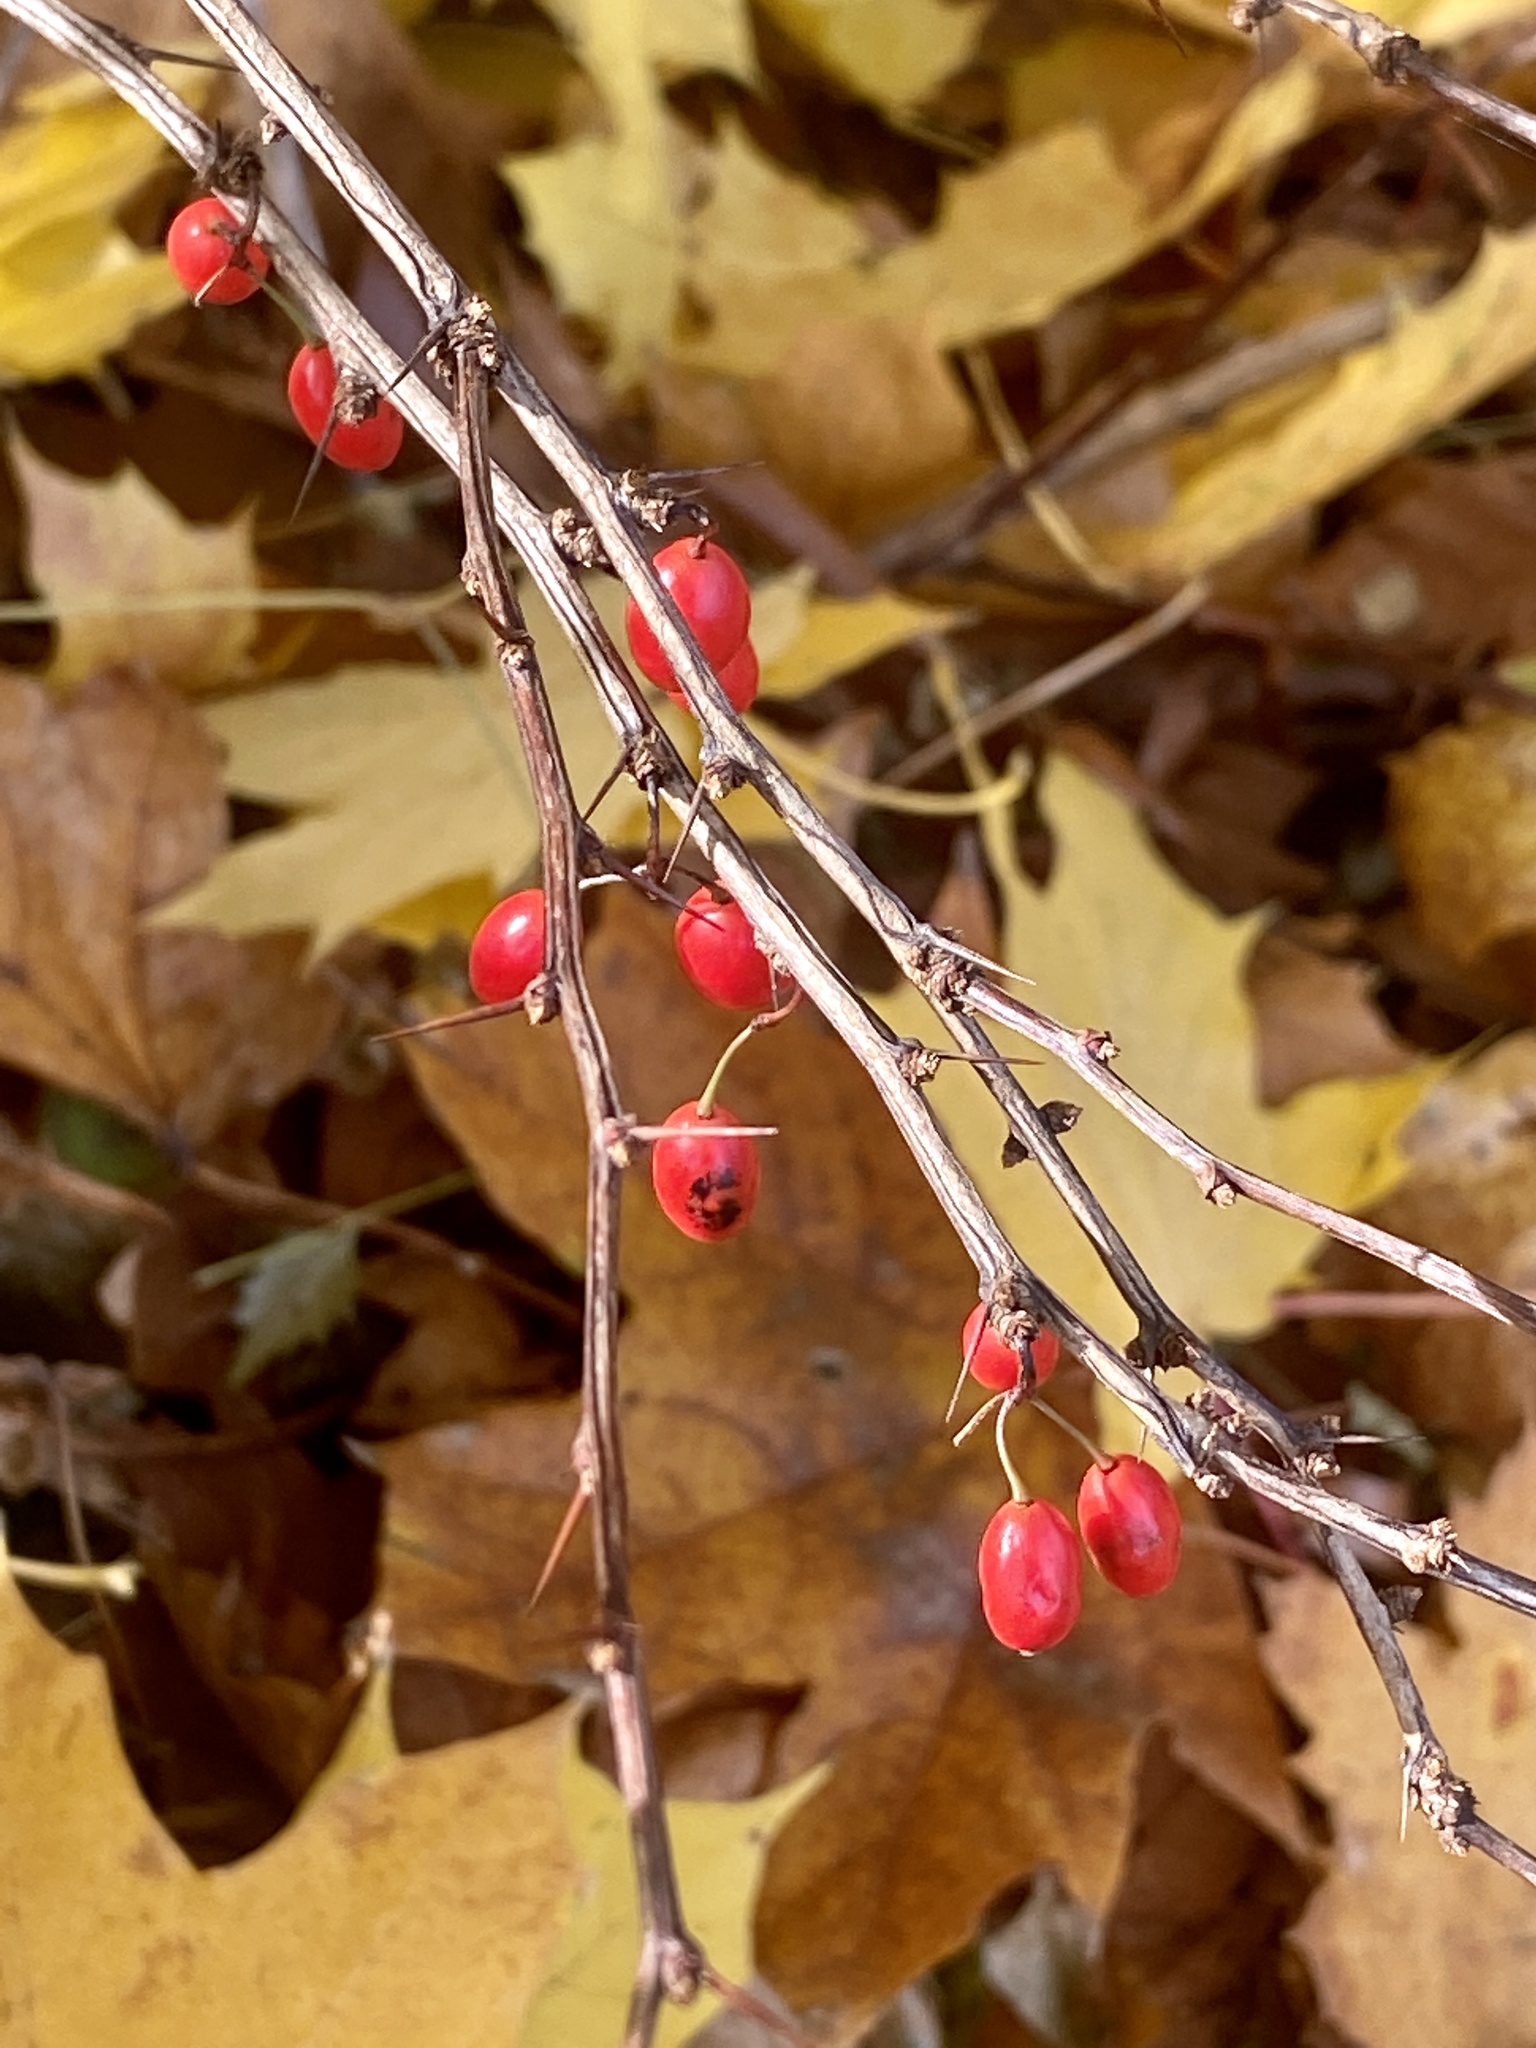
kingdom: Plantae
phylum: Tracheophyta
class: Magnoliopsida
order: Ranunculales
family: Berberidaceae
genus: Berberis
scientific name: Berberis thunbergii
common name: Japanese barberry
